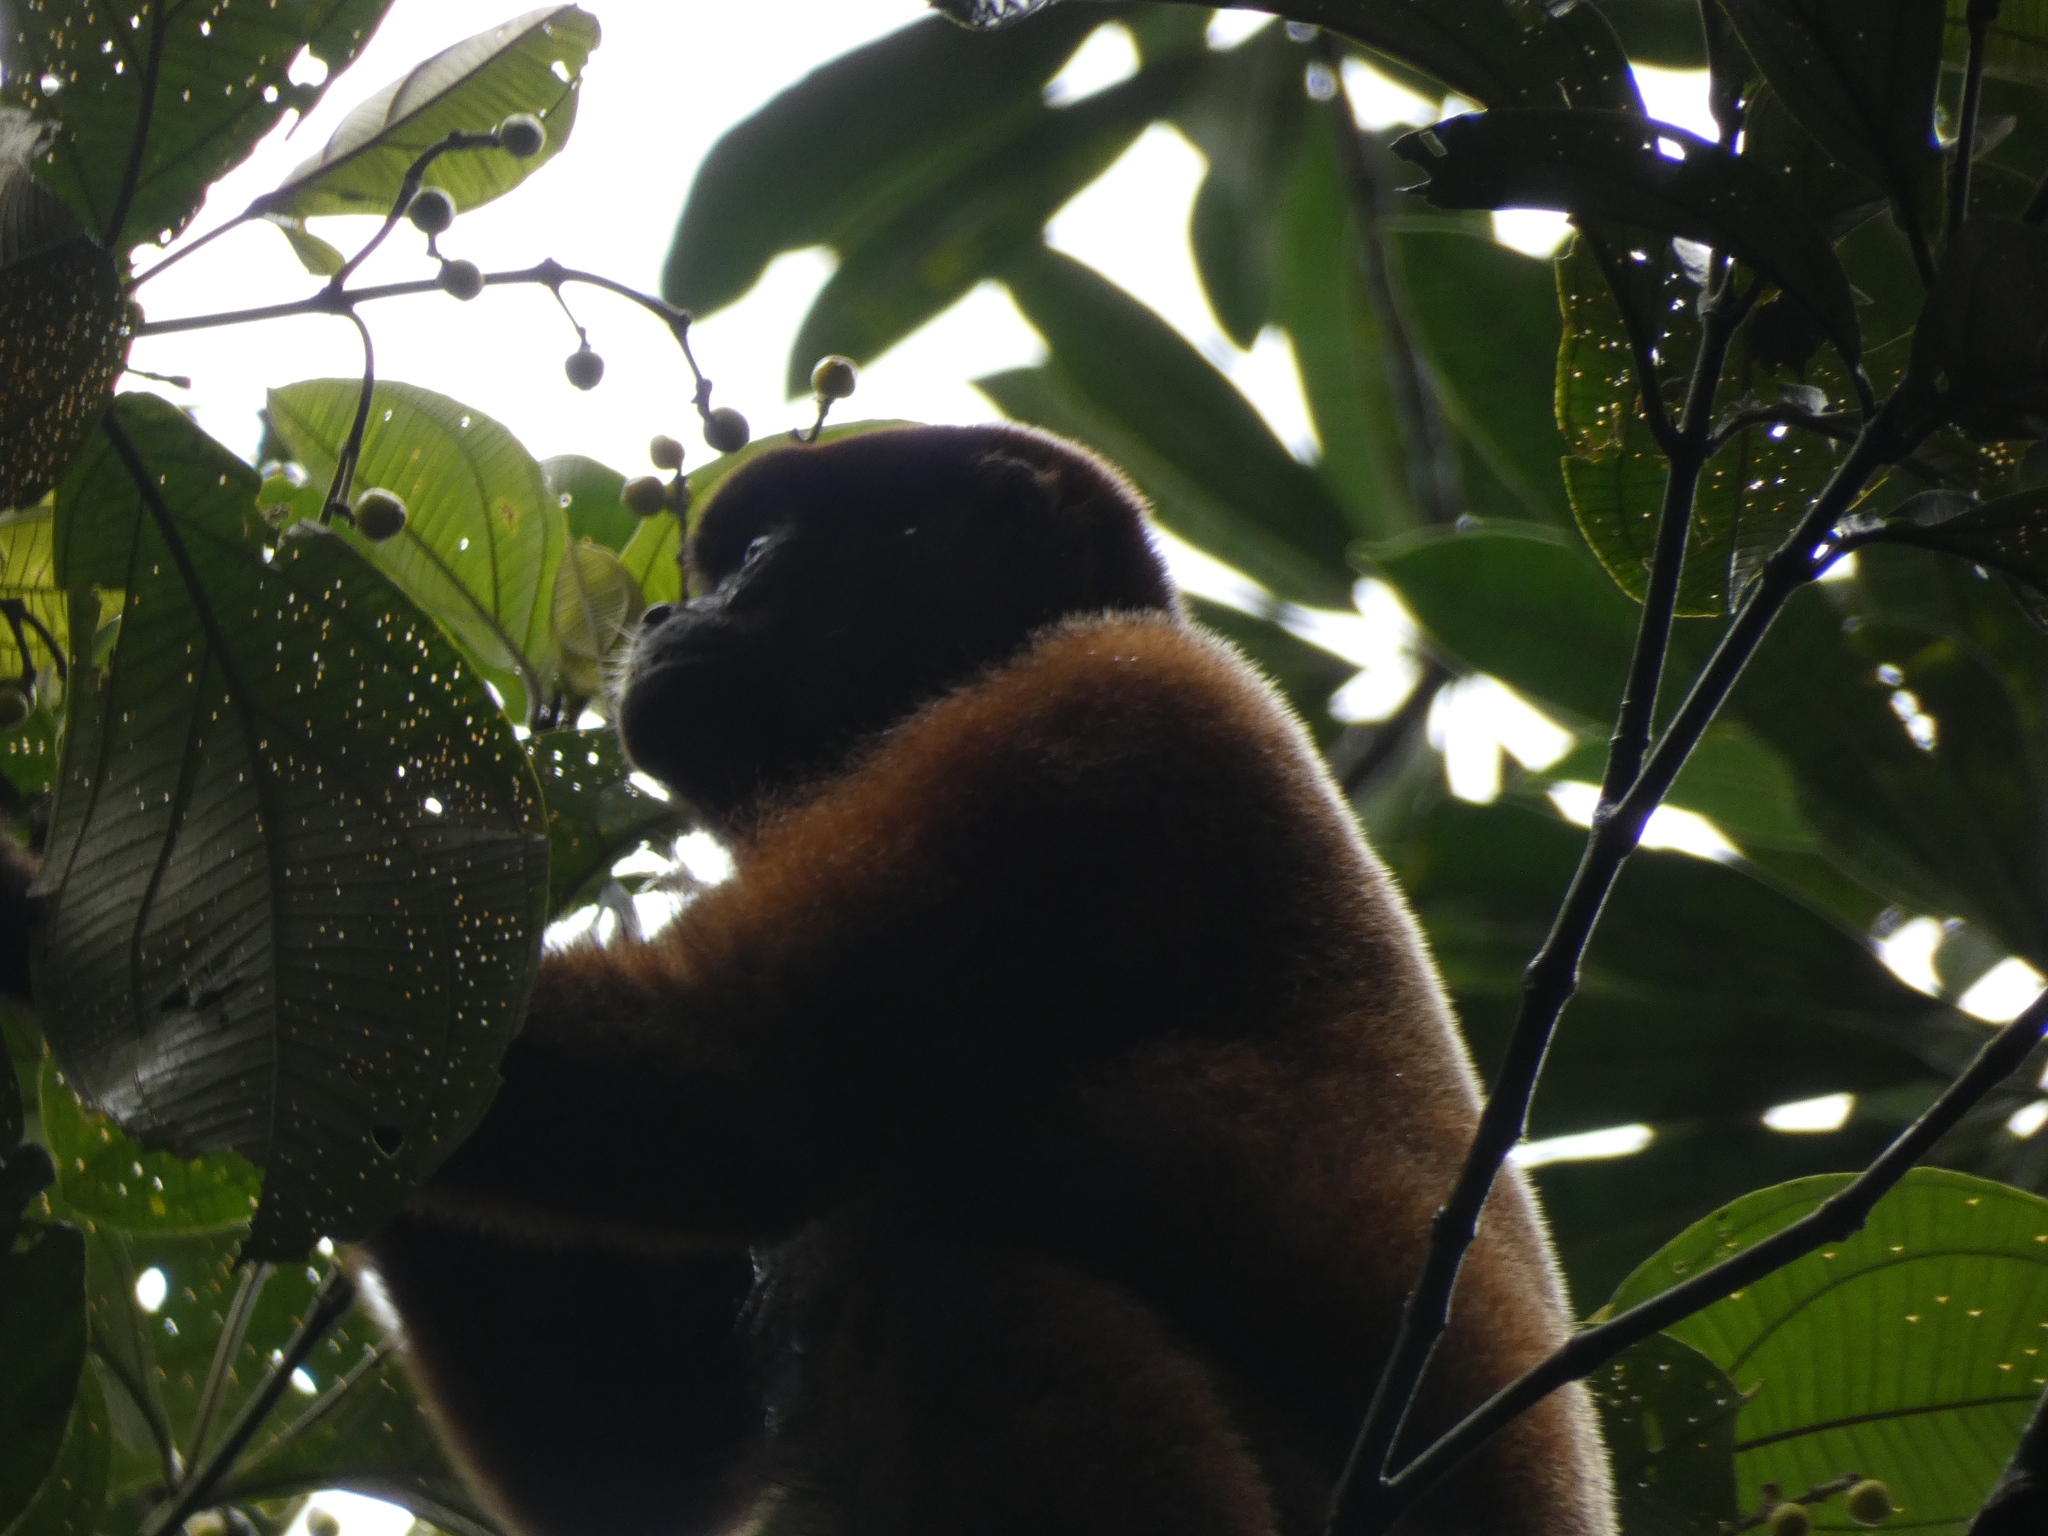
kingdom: Animalia
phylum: Chordata
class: Mammalia
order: Primates
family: Atelidae
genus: Lagothrix
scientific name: Lagothrix lagothricha
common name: Brown woolly monkey
